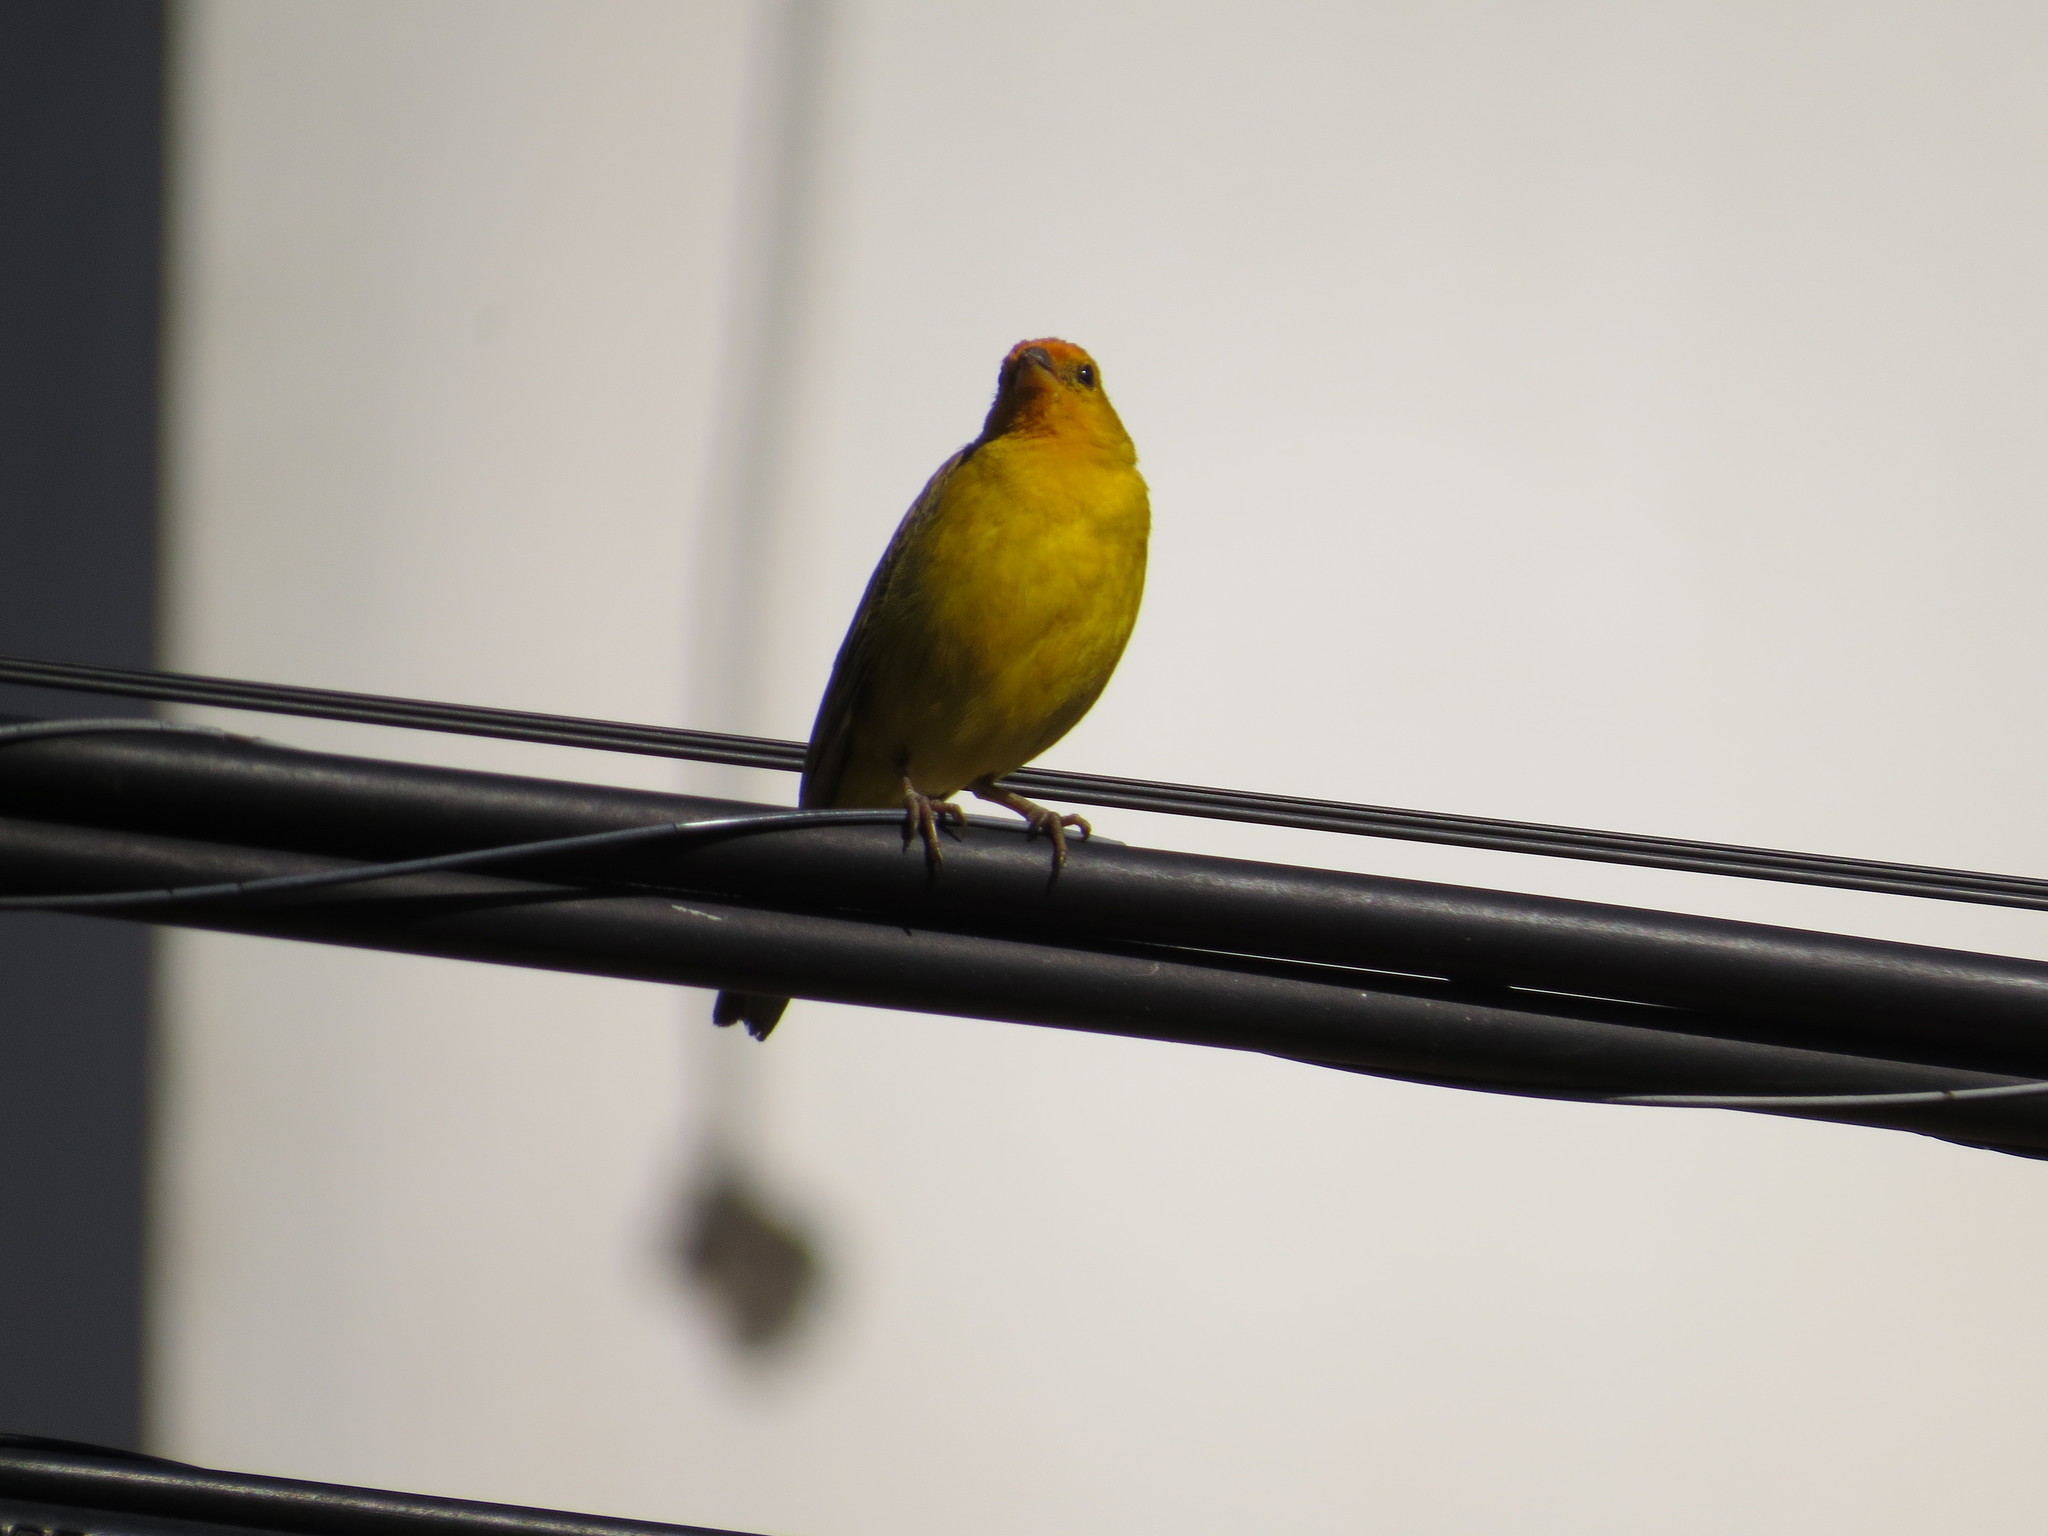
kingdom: Animalia
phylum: Chordata
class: Aves
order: Passeriformes
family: Thraupidae
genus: Sicalis
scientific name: Sicalis flaveola
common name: Saffron finch
